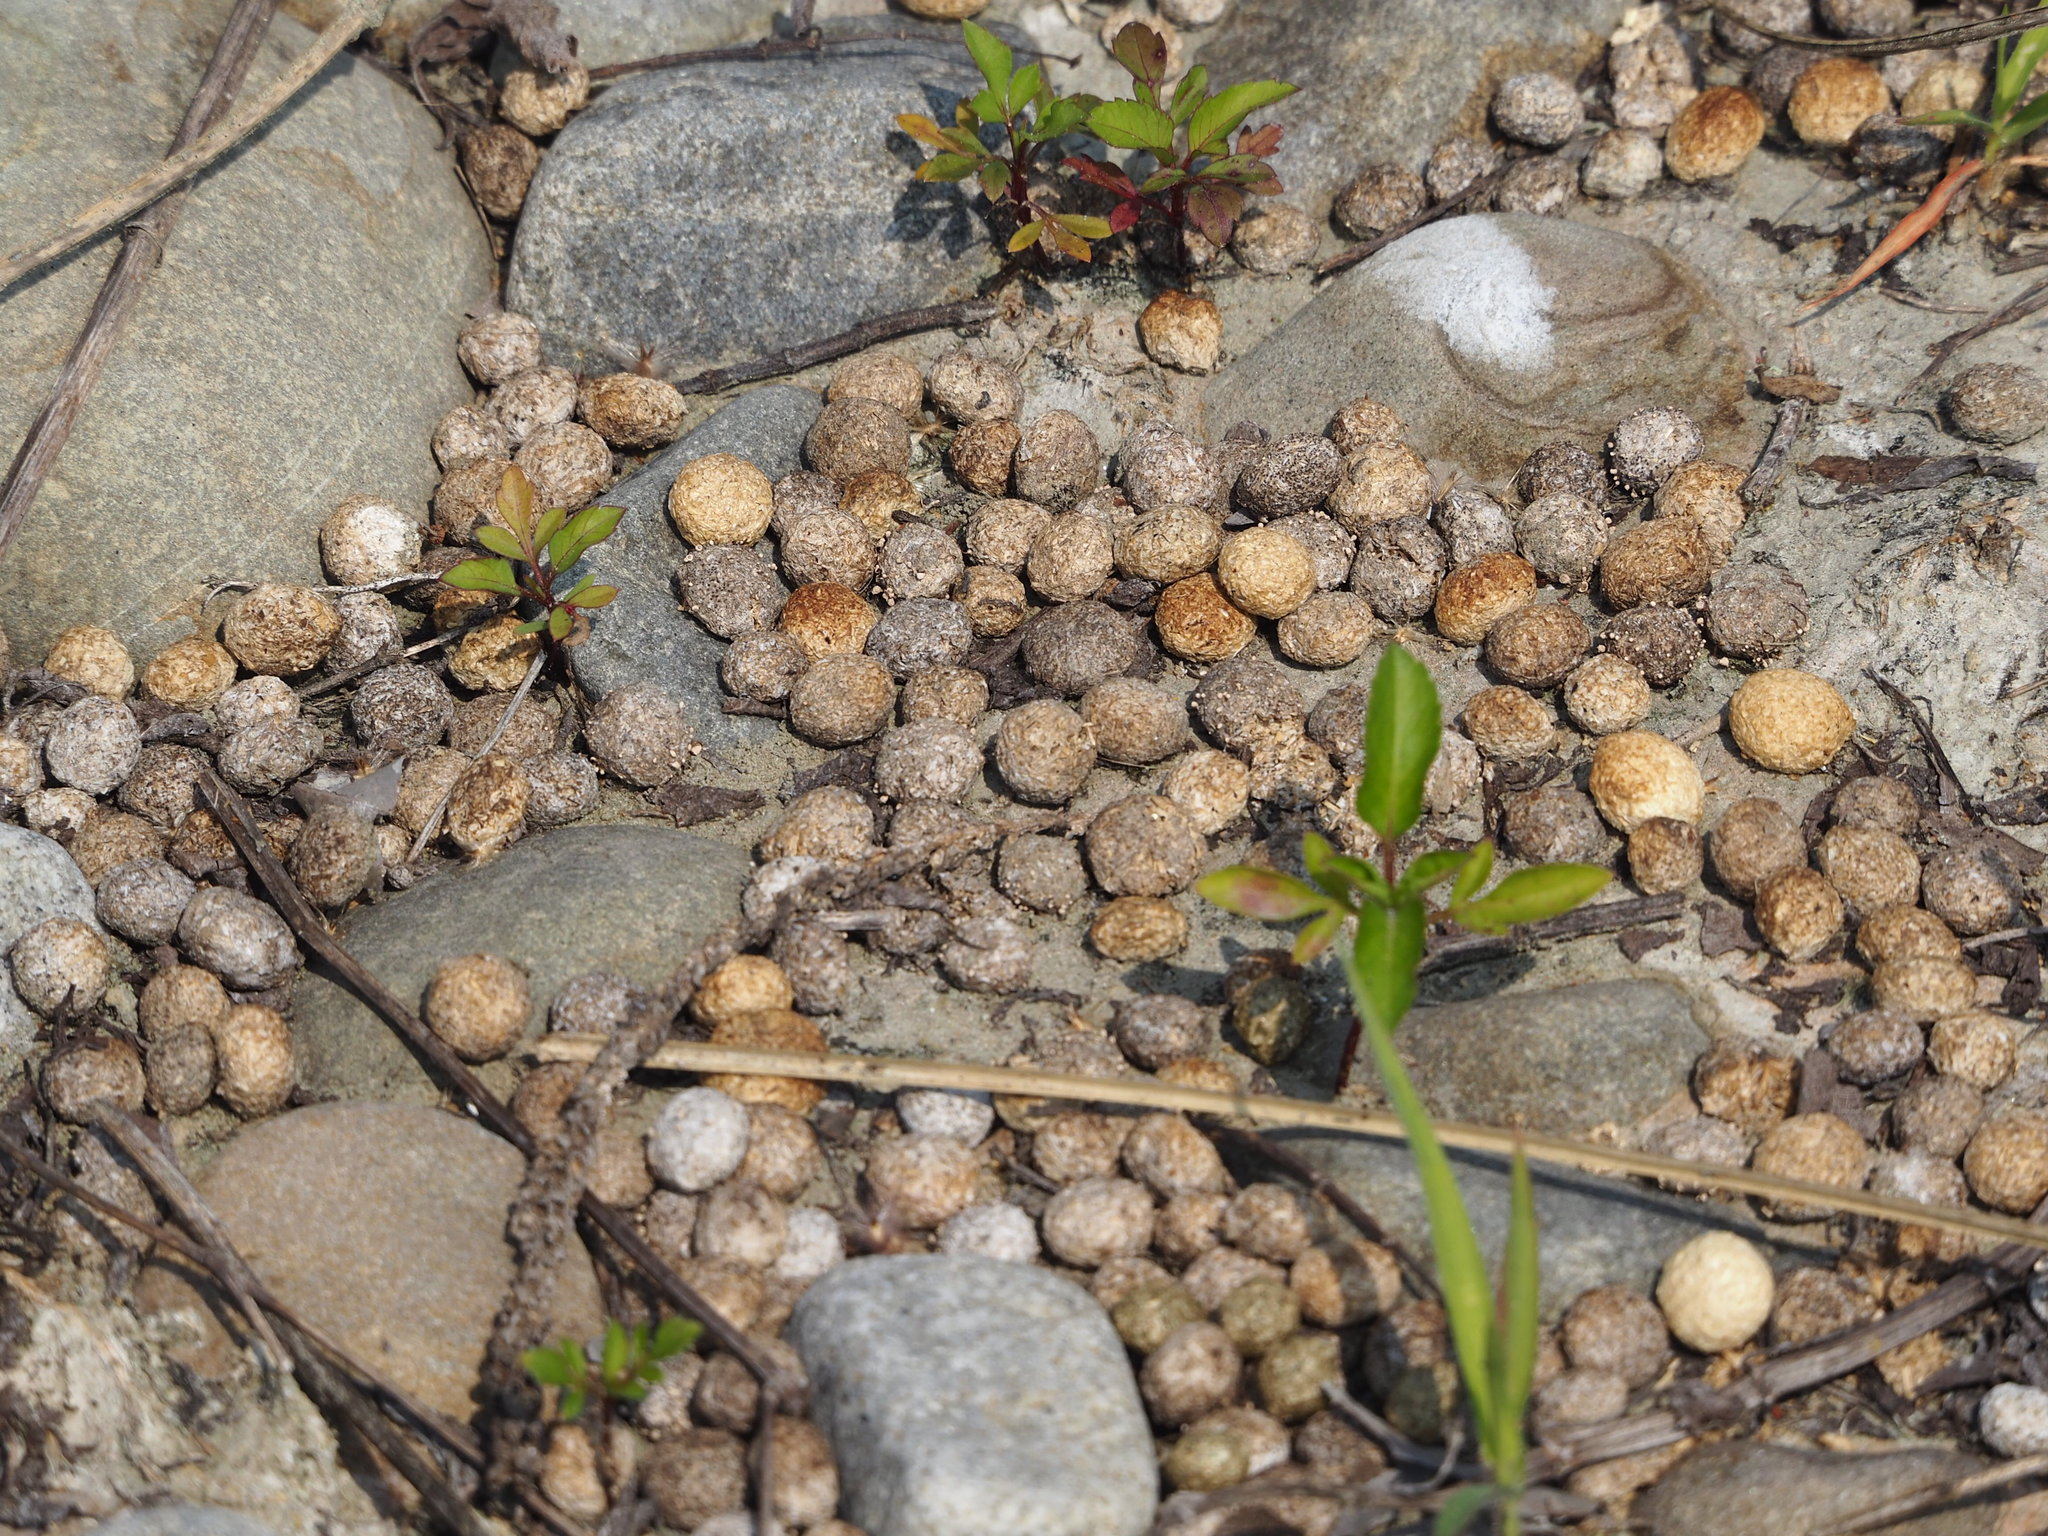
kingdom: Animalia
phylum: Chordata
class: Mammalia
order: Lagomorpha
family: Leporidae
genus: Lepus
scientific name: Lepus sinensis
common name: Chinese hare
